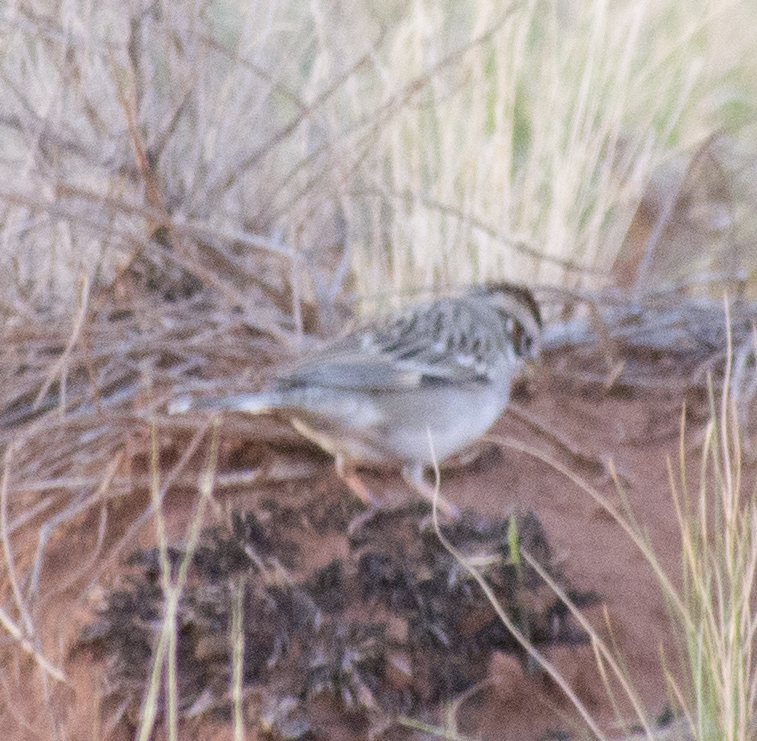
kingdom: Animalia
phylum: Chordata
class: Aves
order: Passeriformes
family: Passerellidae
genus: Chondestes
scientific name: Chondestes grammacus
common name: Lark sparrow
